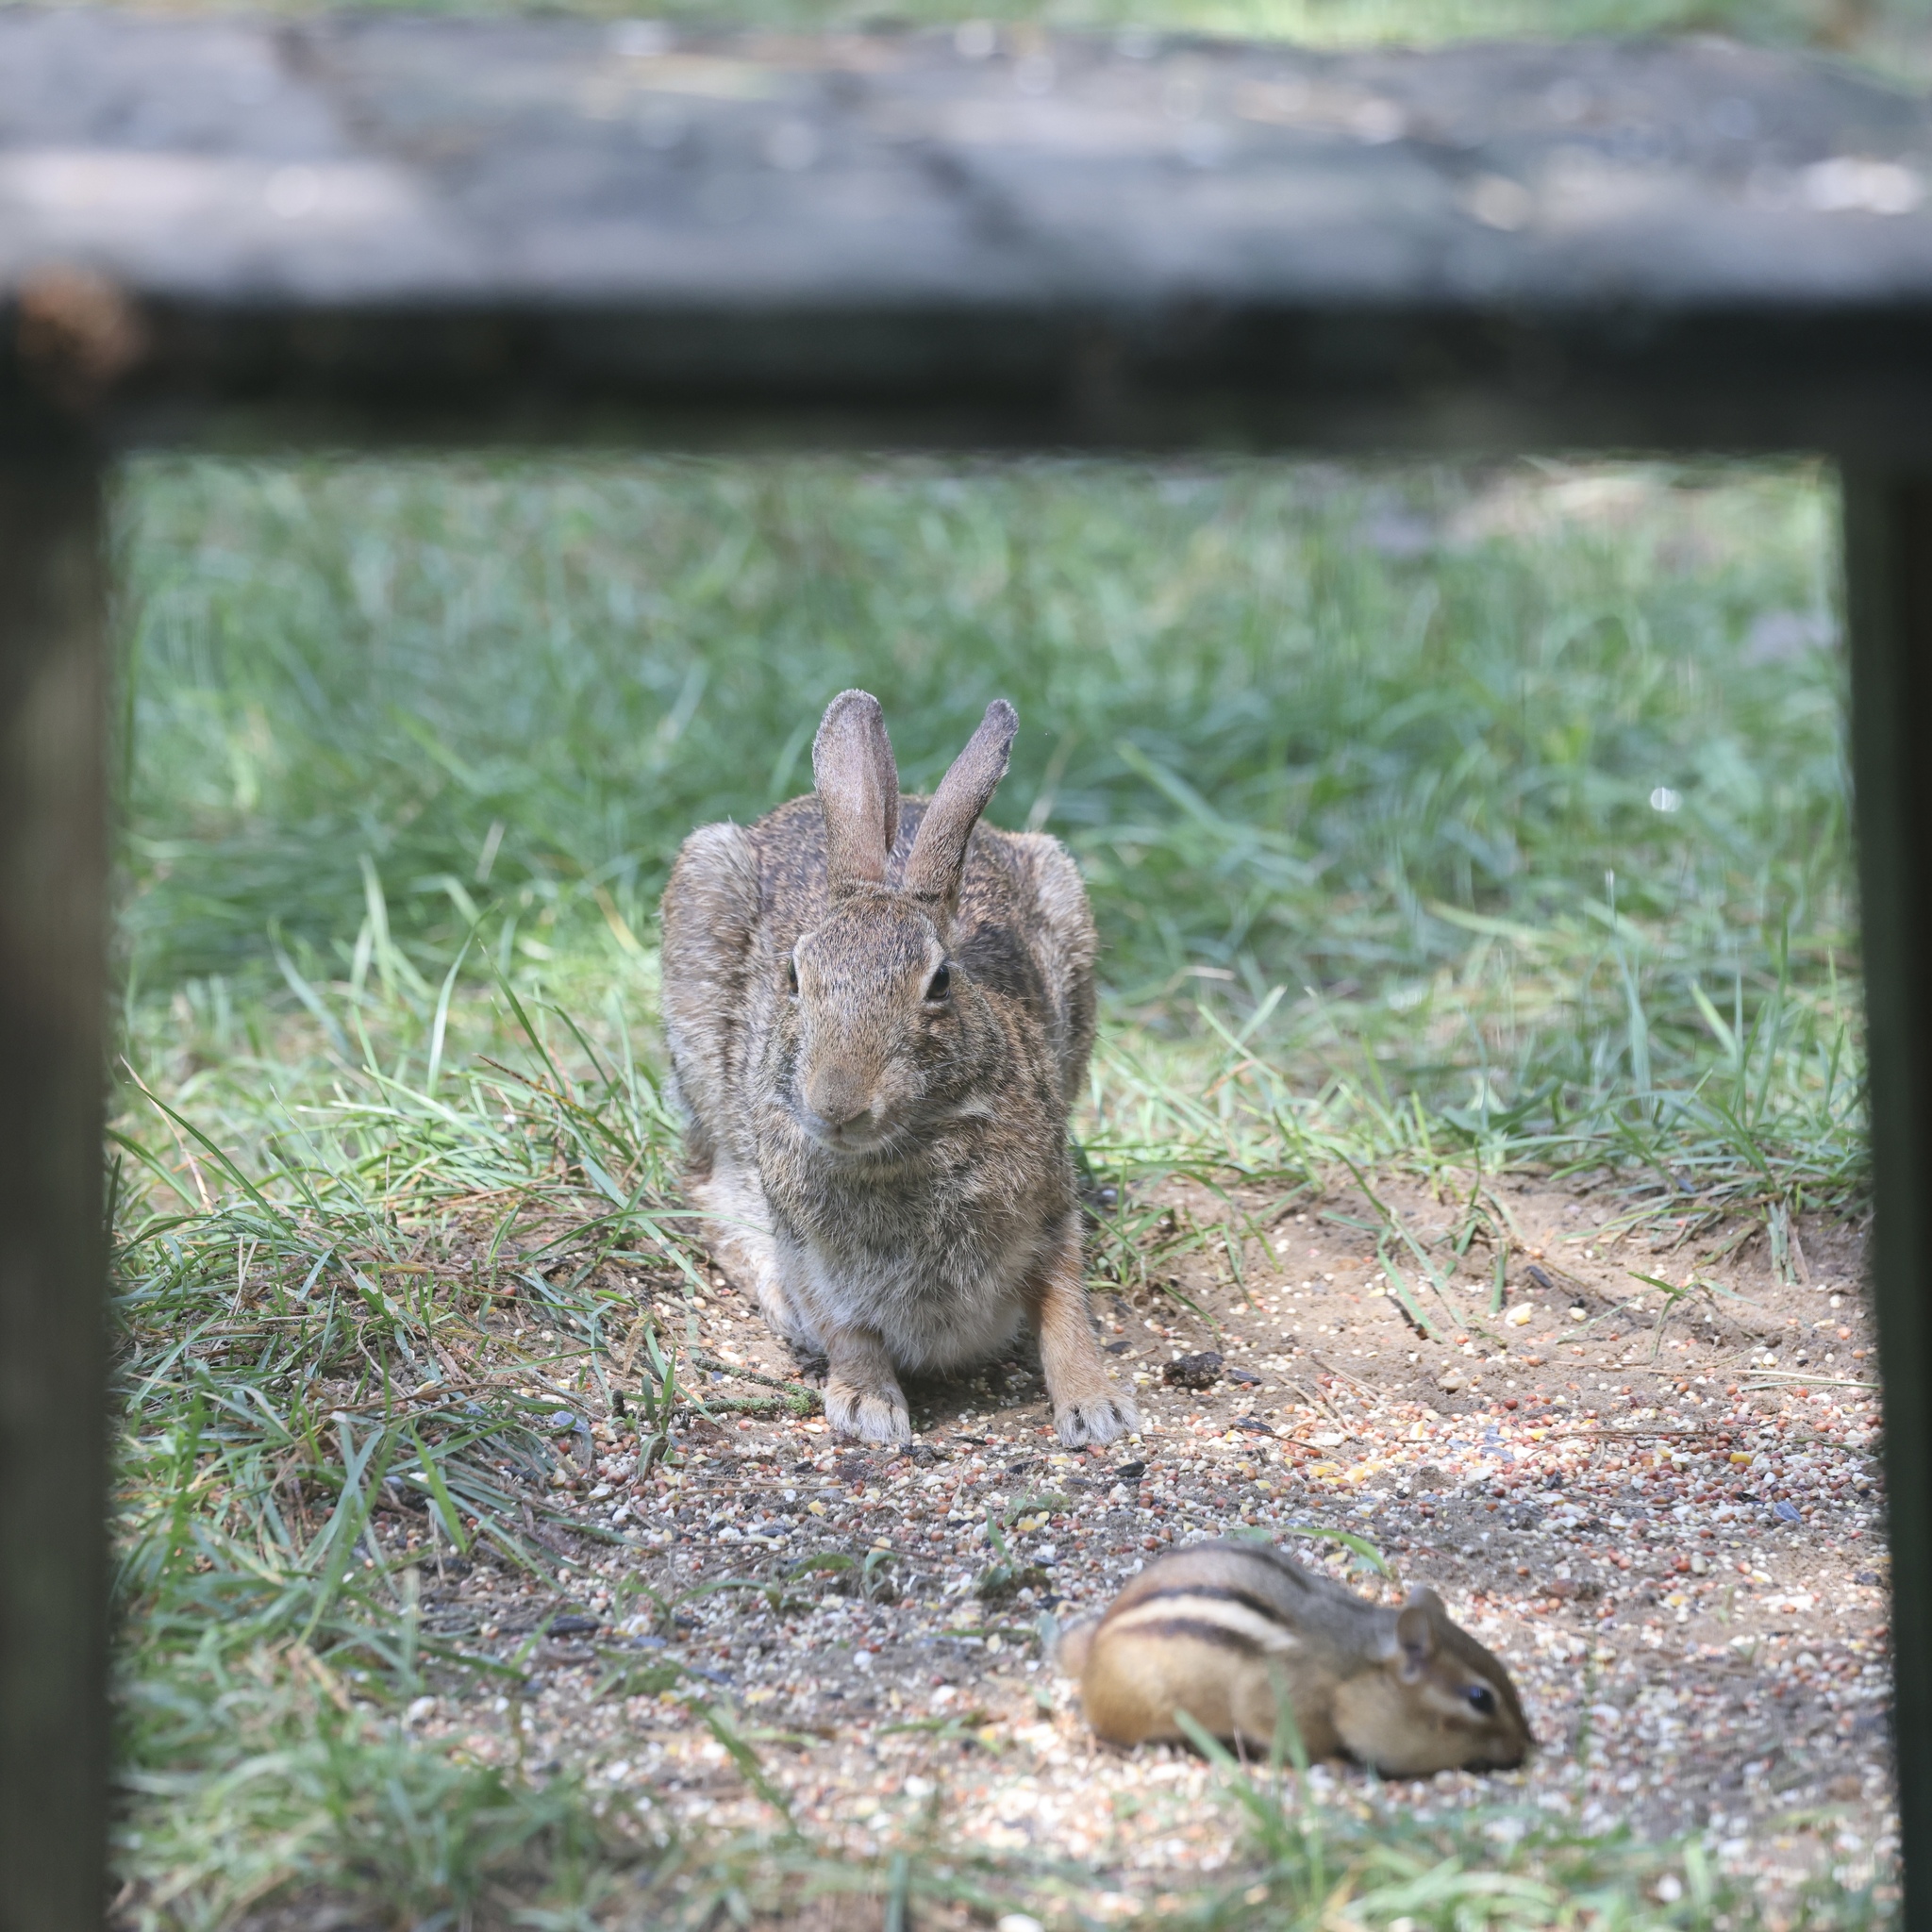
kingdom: Animalia
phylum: Chordata
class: Mammalia
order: Lagomorpha
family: Leporidae
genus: Sylvilagus
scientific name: Sylvilagus floridanus
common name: Eastern cottontail
